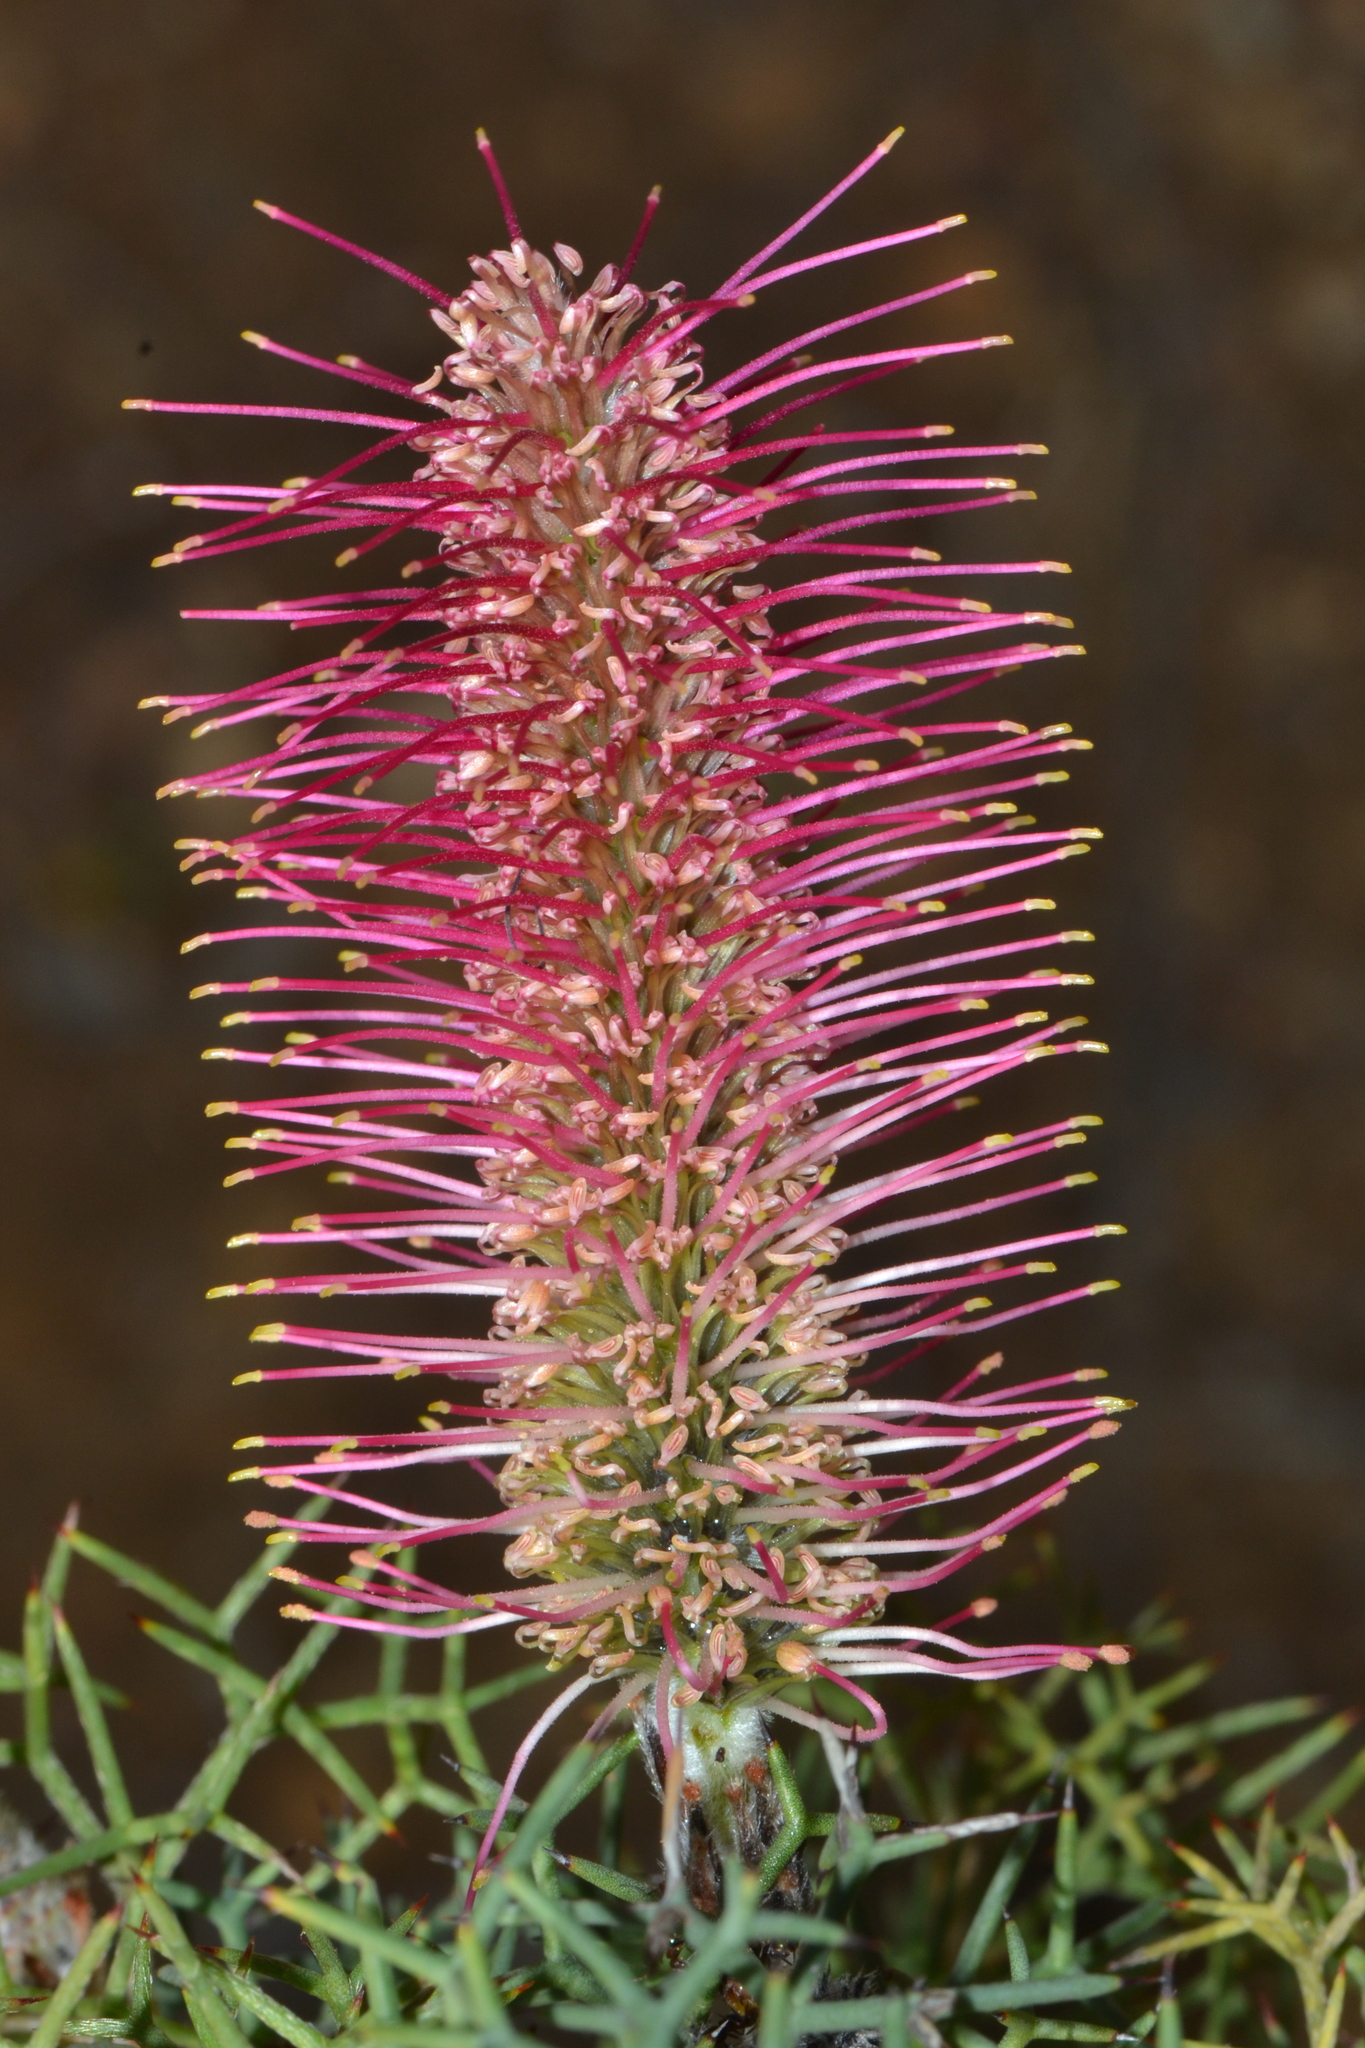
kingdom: Plantae
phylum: Tracheophyta
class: Magnoliopsida
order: Proteales
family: Proteaceae
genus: Grevillea
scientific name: Grevillea paradoxa
